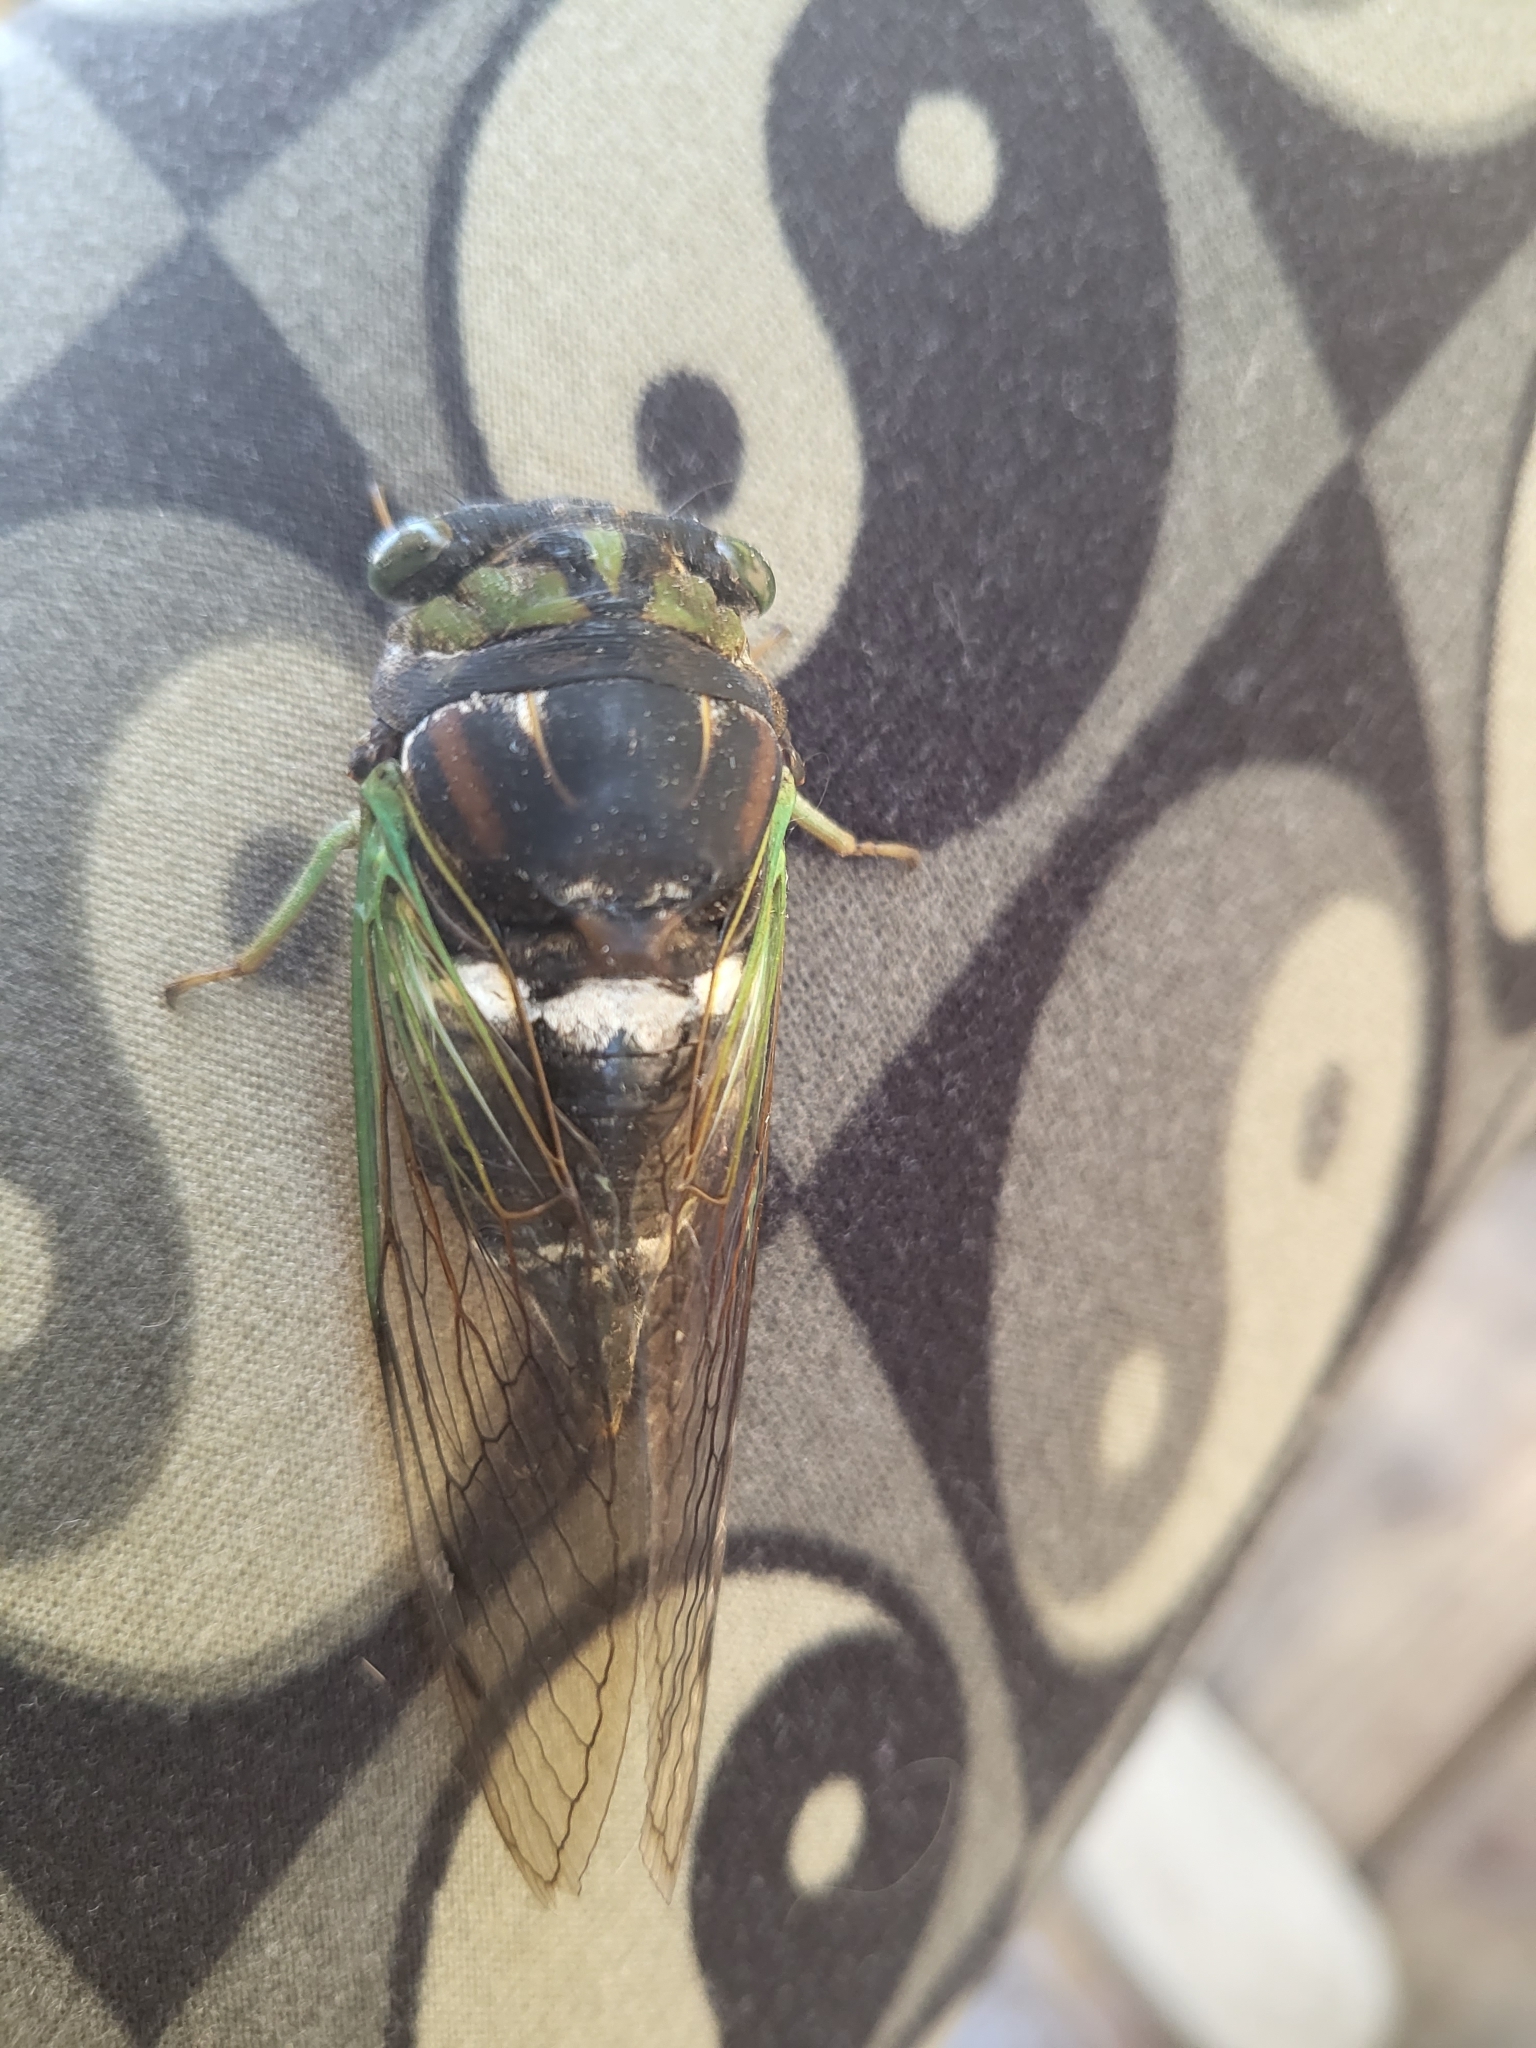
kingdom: Animalia
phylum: Arthropoda
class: Insecta
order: Hemiptera
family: Cicadidae
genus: Neotibicen
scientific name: Neotibicen tibicen
